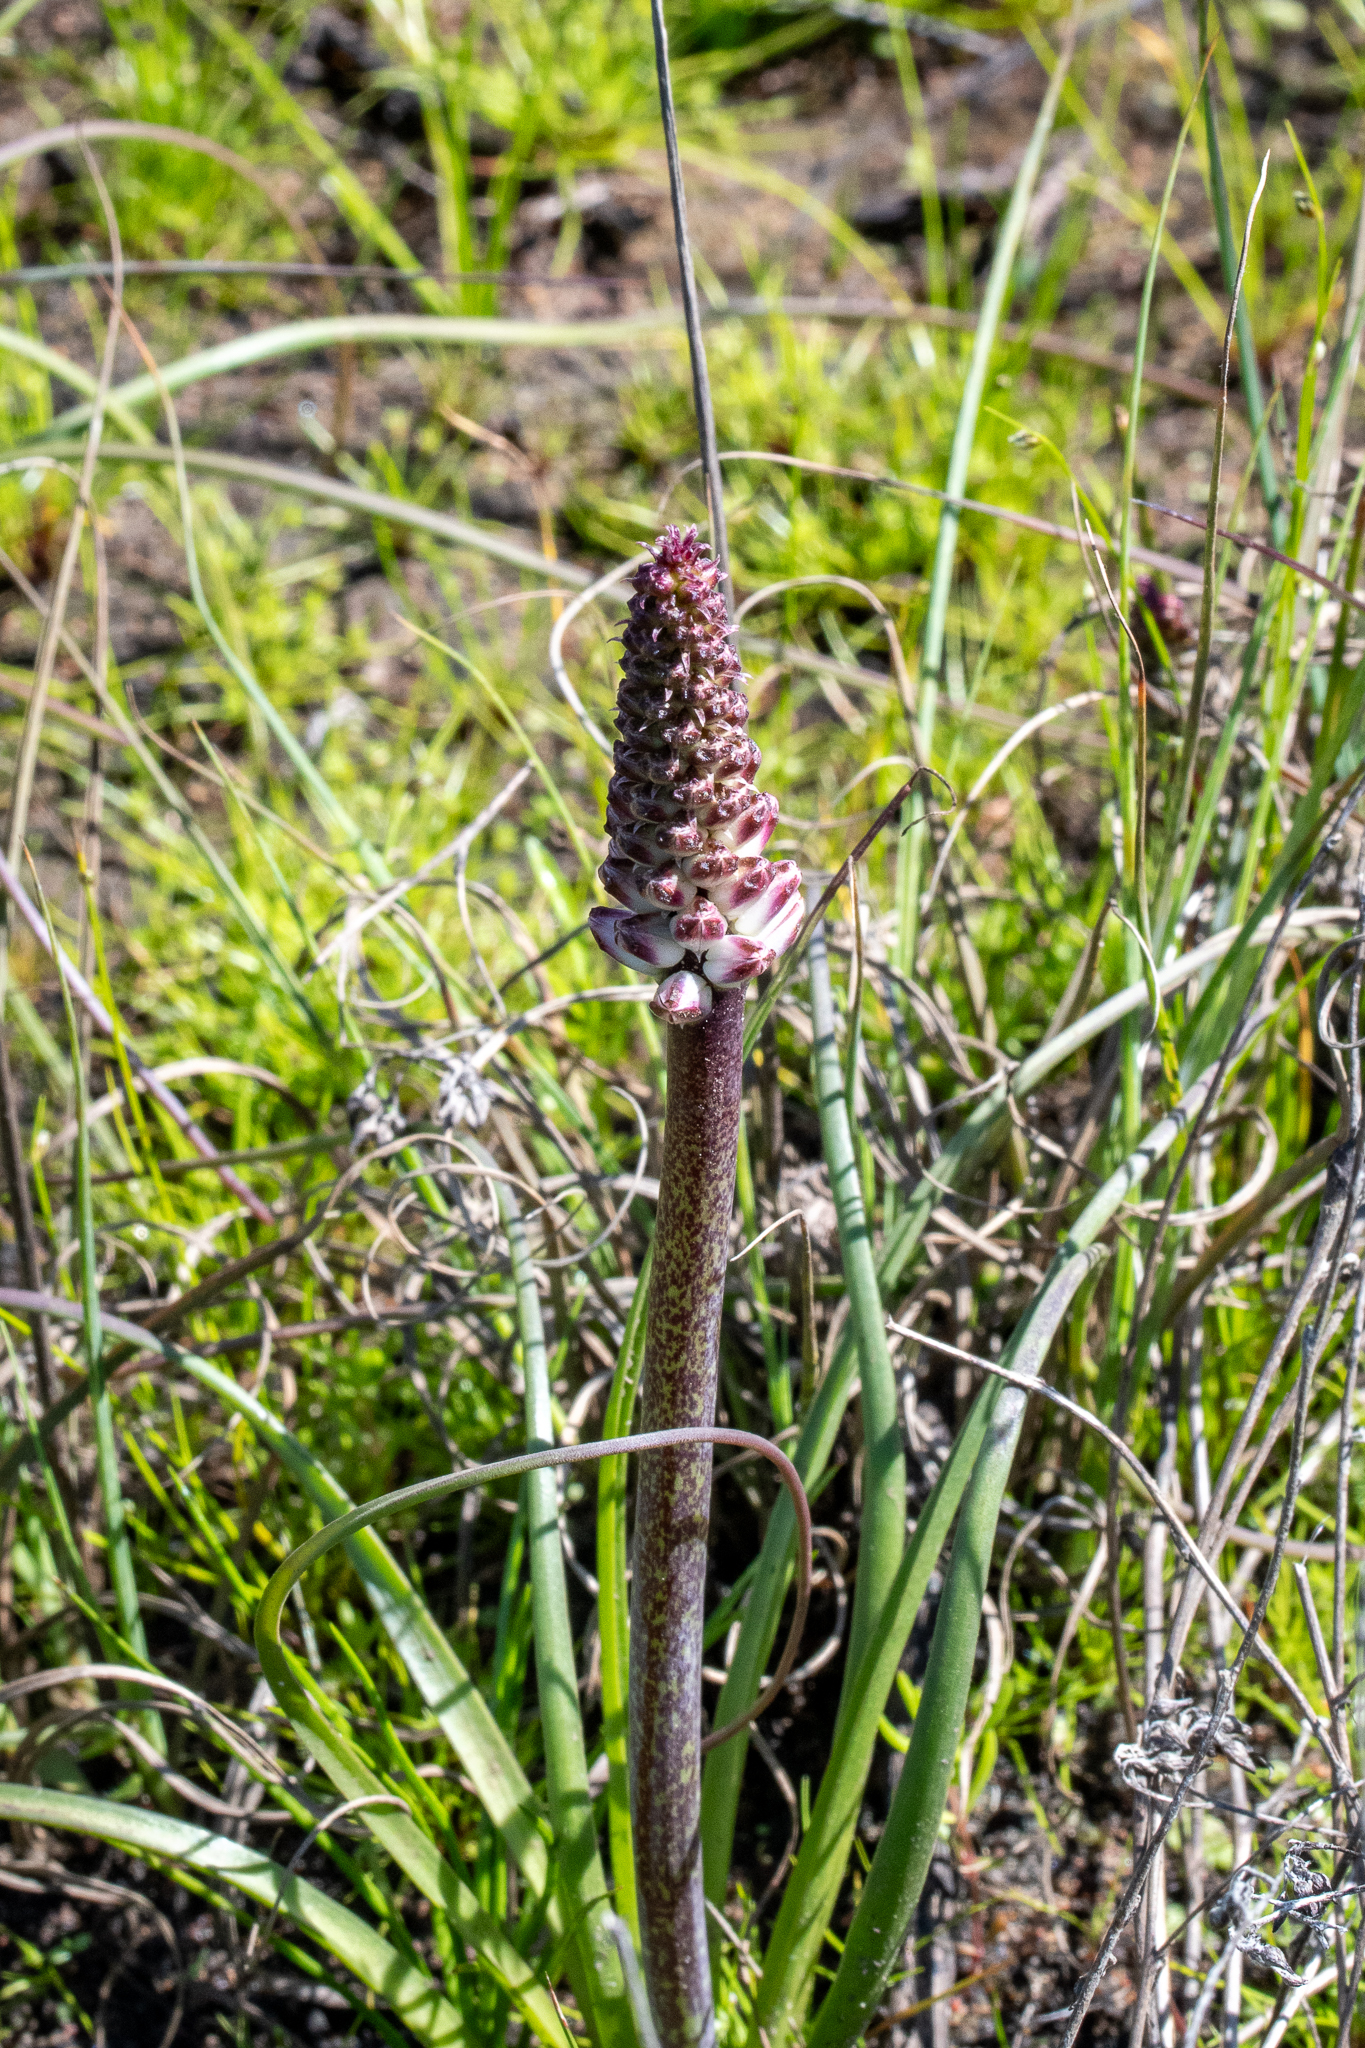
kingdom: Plantae
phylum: Tracheophyta
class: Liliopsida
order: Asparagales
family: Asparagaceae
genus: Lachenalia
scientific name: Lachenalia contaminata
